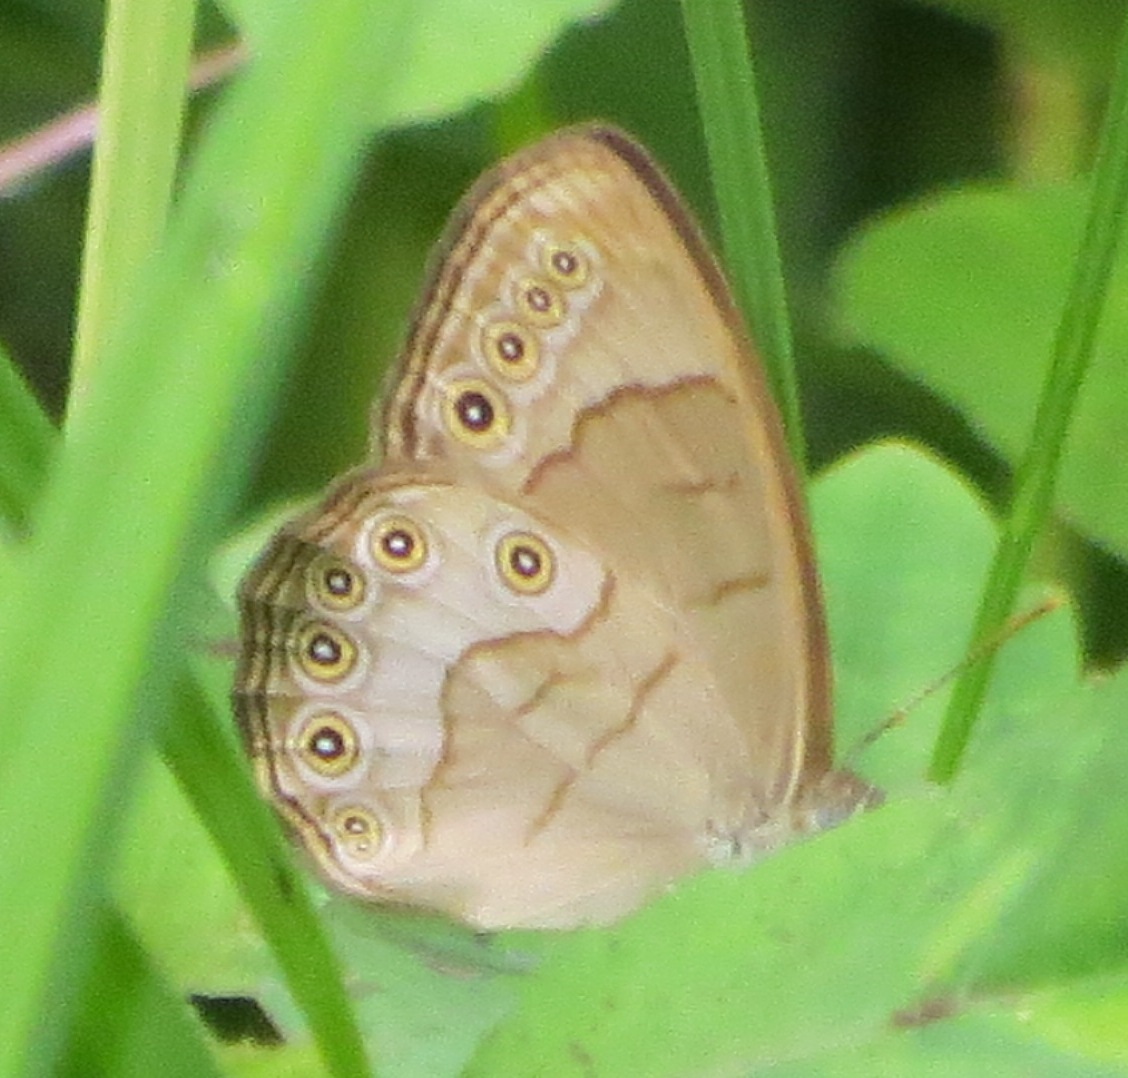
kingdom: Animalia
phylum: Arthropoda
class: Insecta
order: Lepidoptera
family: Nymphalidae
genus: Lethe
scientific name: Lethe eurydice
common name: Eyed brown
